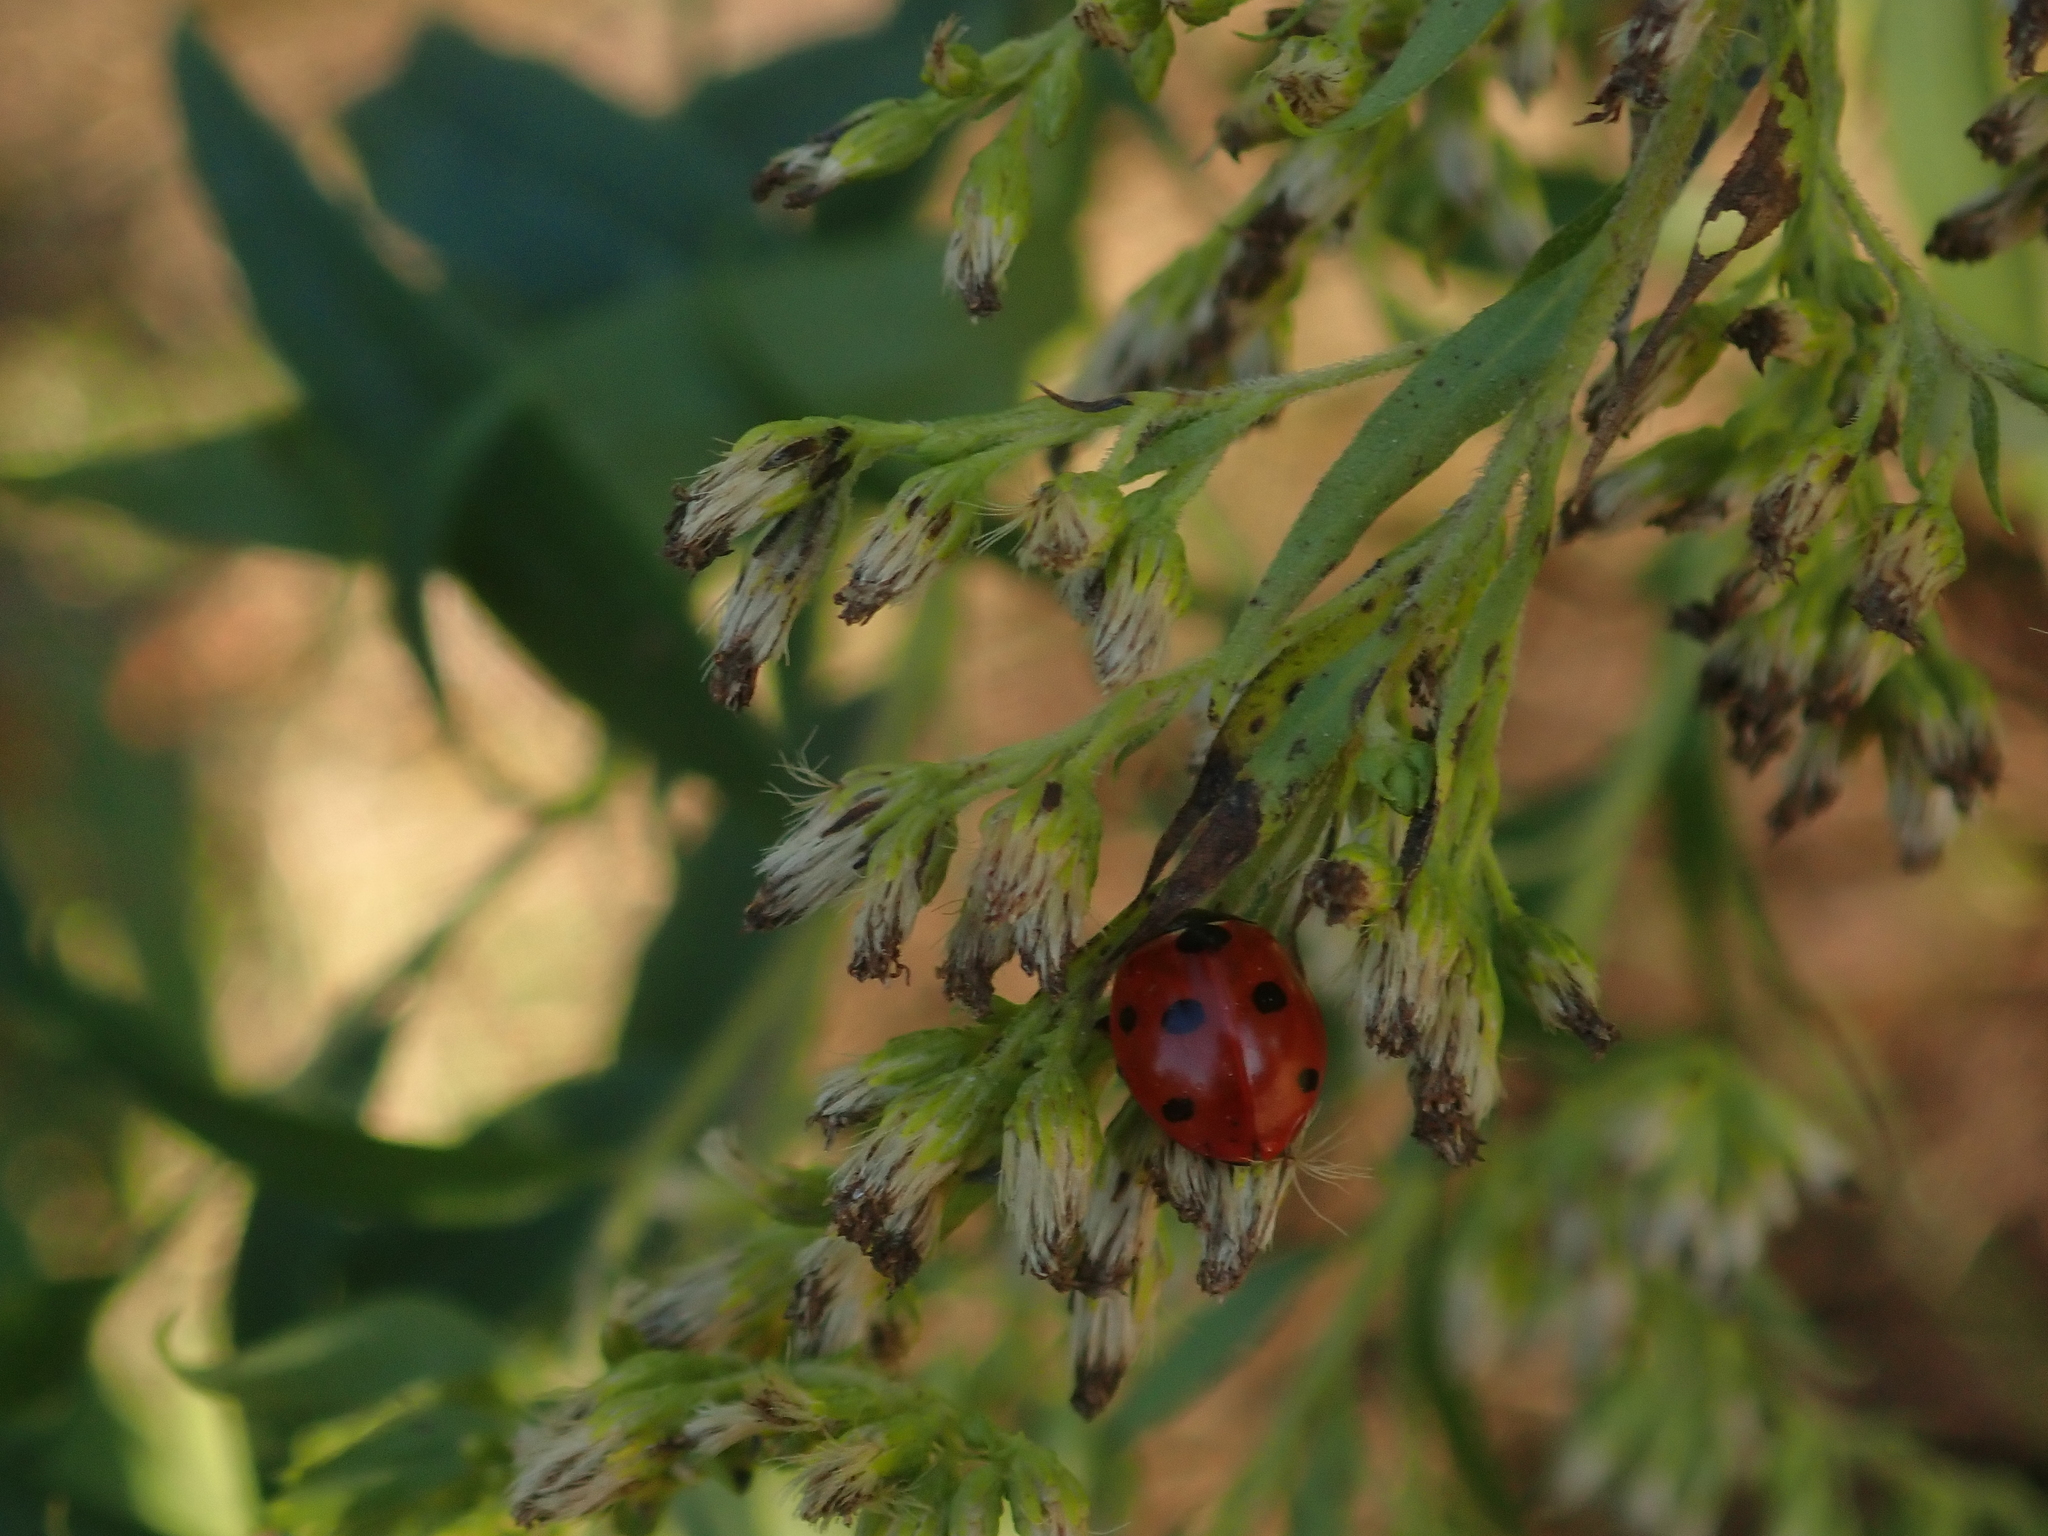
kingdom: Animalia
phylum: Arthropoda
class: Insecta
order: Coleoptera
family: Coccinellidae
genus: Coccinella
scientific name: Coccinella septempunctata
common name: Sevenspotted lady beetle
